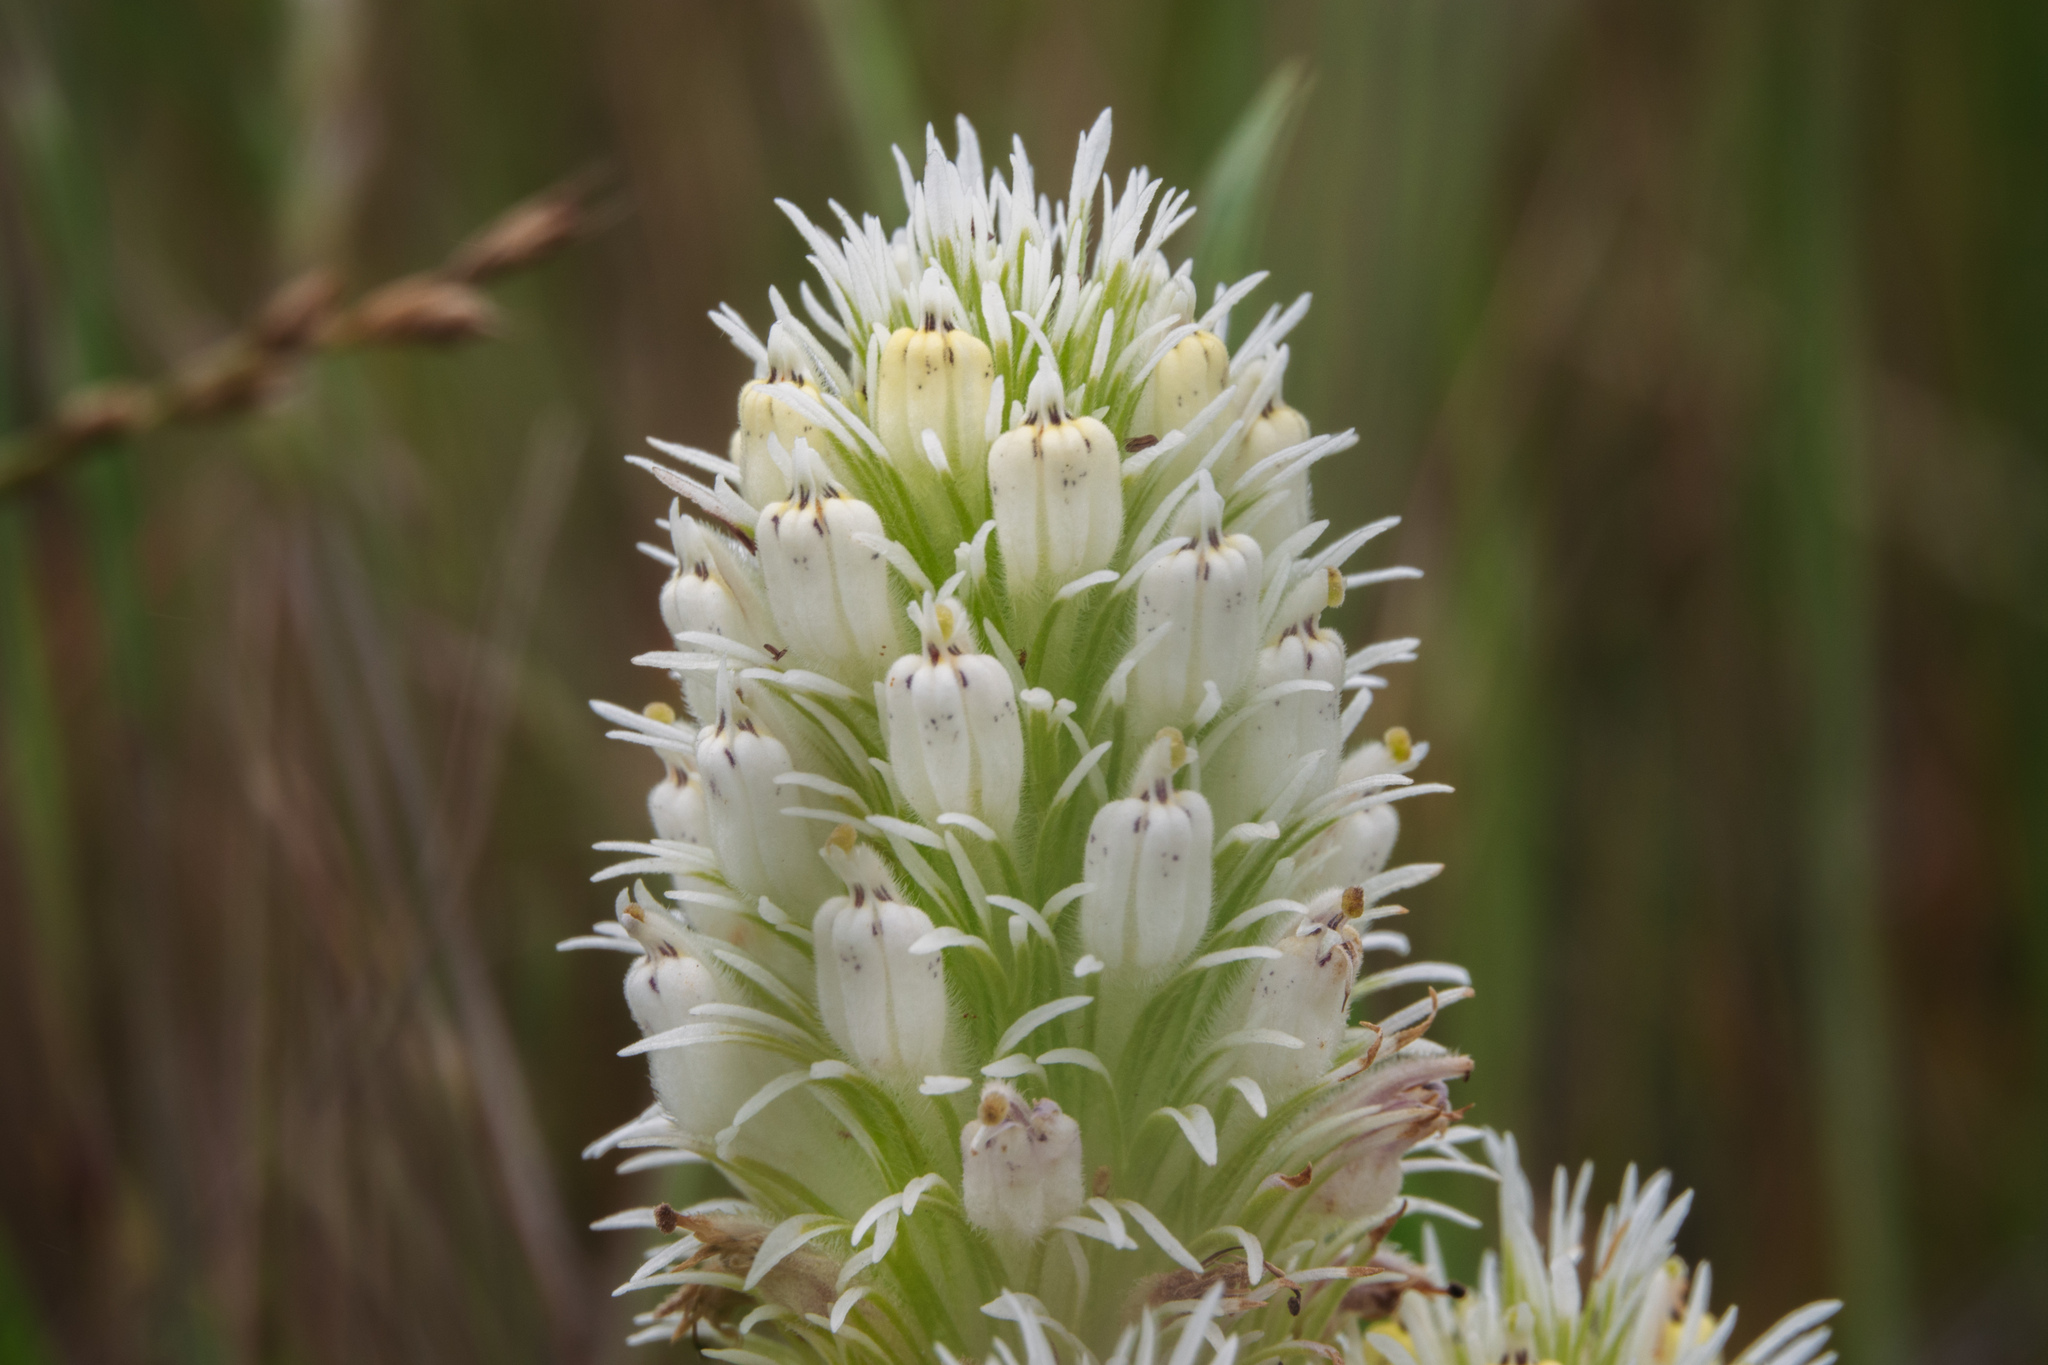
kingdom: Plantae
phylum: Tracheophyta
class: Magnoliopsida
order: Lamiales
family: Orobanchaceae
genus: Castilleja
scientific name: Castilleja densiflora
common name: Dense-flower indian paintbrush
